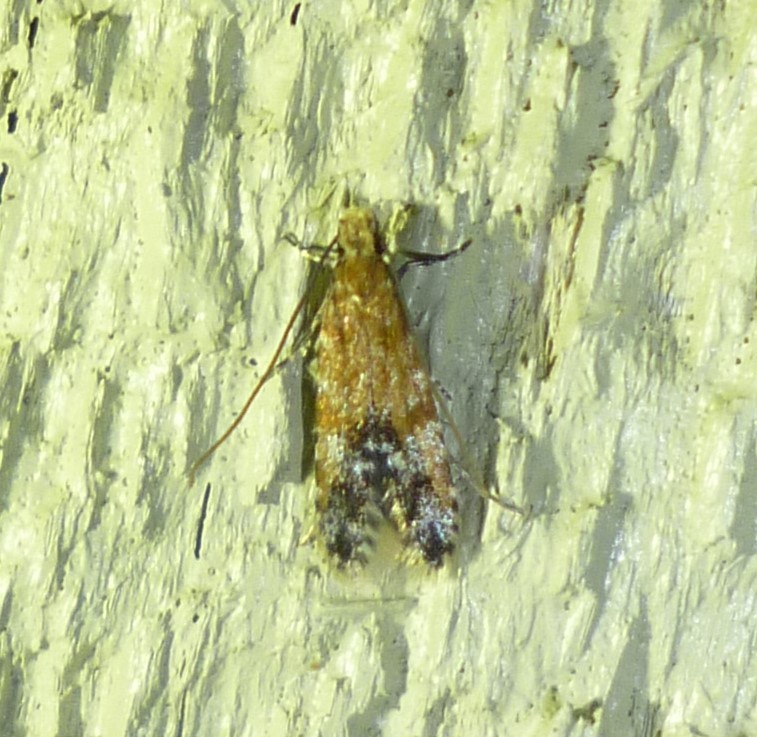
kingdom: Animalia
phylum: Arthropoda
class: Insecta
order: Lepidoptera
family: Meessiidae
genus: Homosetia
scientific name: Homosetia costisignella
